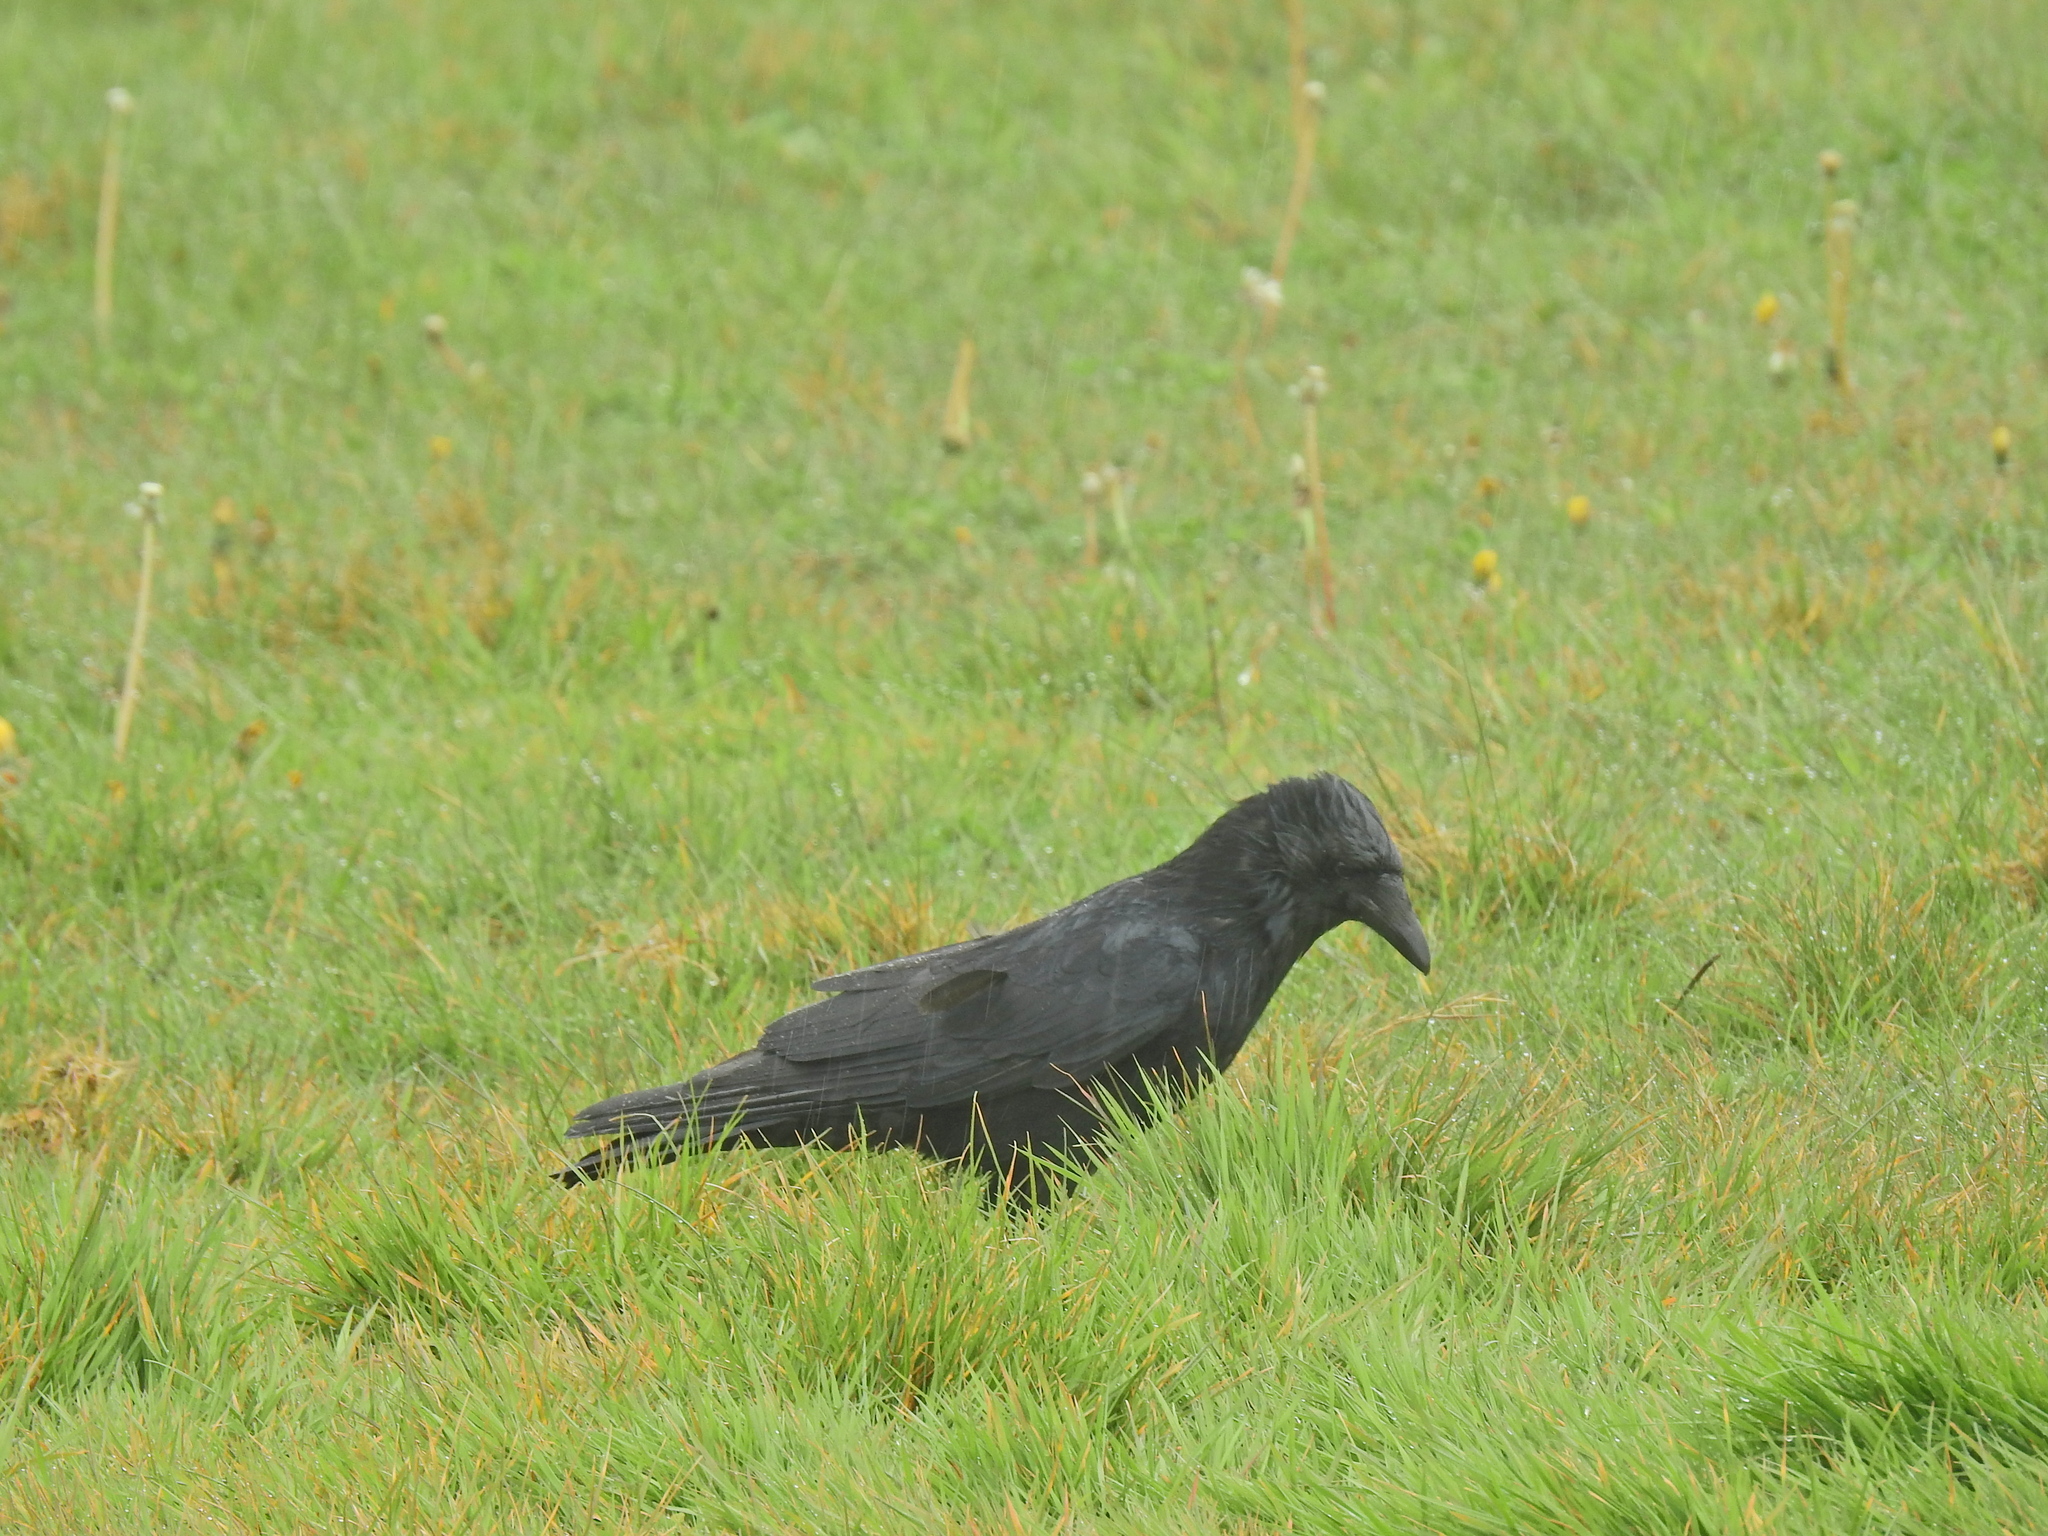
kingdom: Animalia
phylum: Chordata
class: Aves
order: Passeriformes
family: Corvidae
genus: Corvus
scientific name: Corvus corone
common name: Carrion crow
